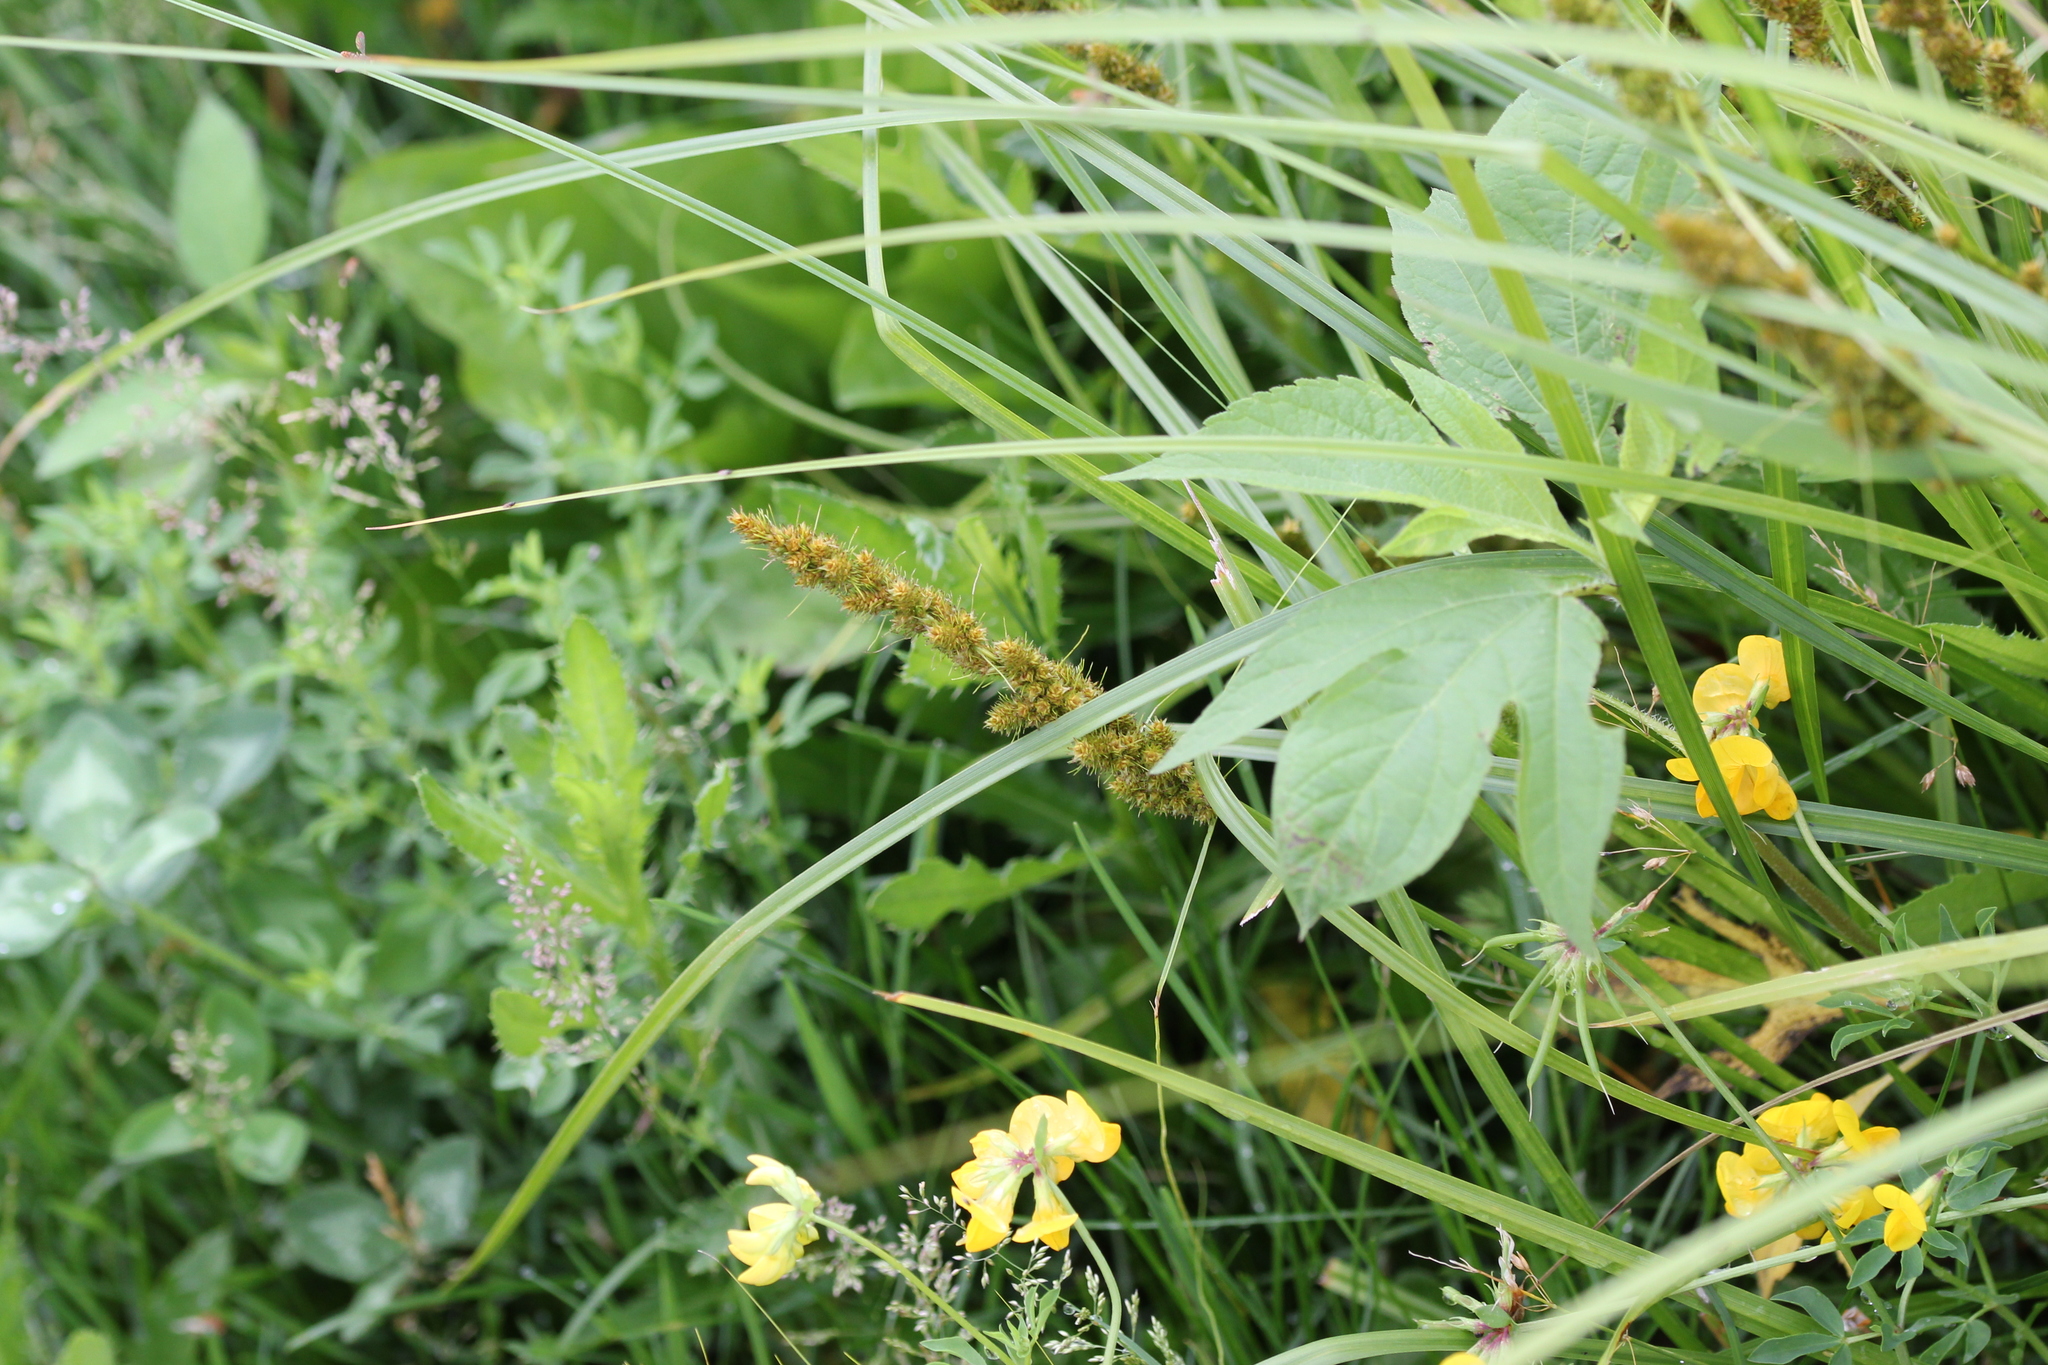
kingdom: Plantae
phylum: Tracheophyta
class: Liliopsida
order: Poales
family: Cyperaceae
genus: Carex
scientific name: Carex vulpinoidea
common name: American fox-sedge
